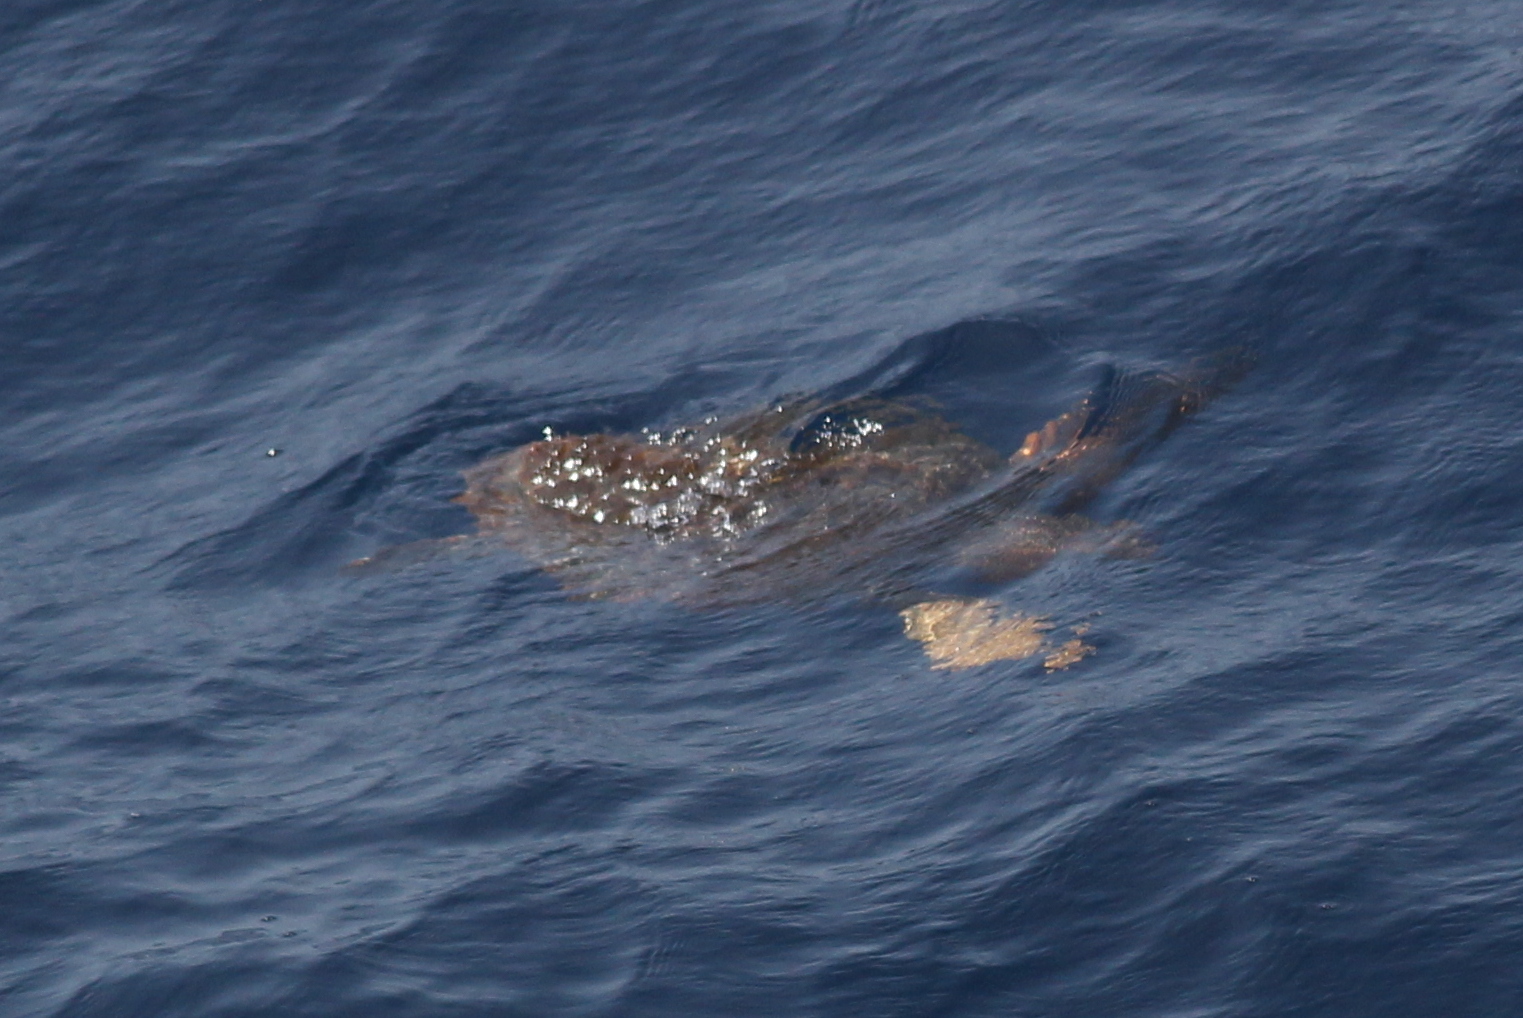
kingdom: Animalia
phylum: Chordata
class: Testudines
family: Cheloniidae
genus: Caretta
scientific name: Caretta caretta
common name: Loggerhead sea turtle
